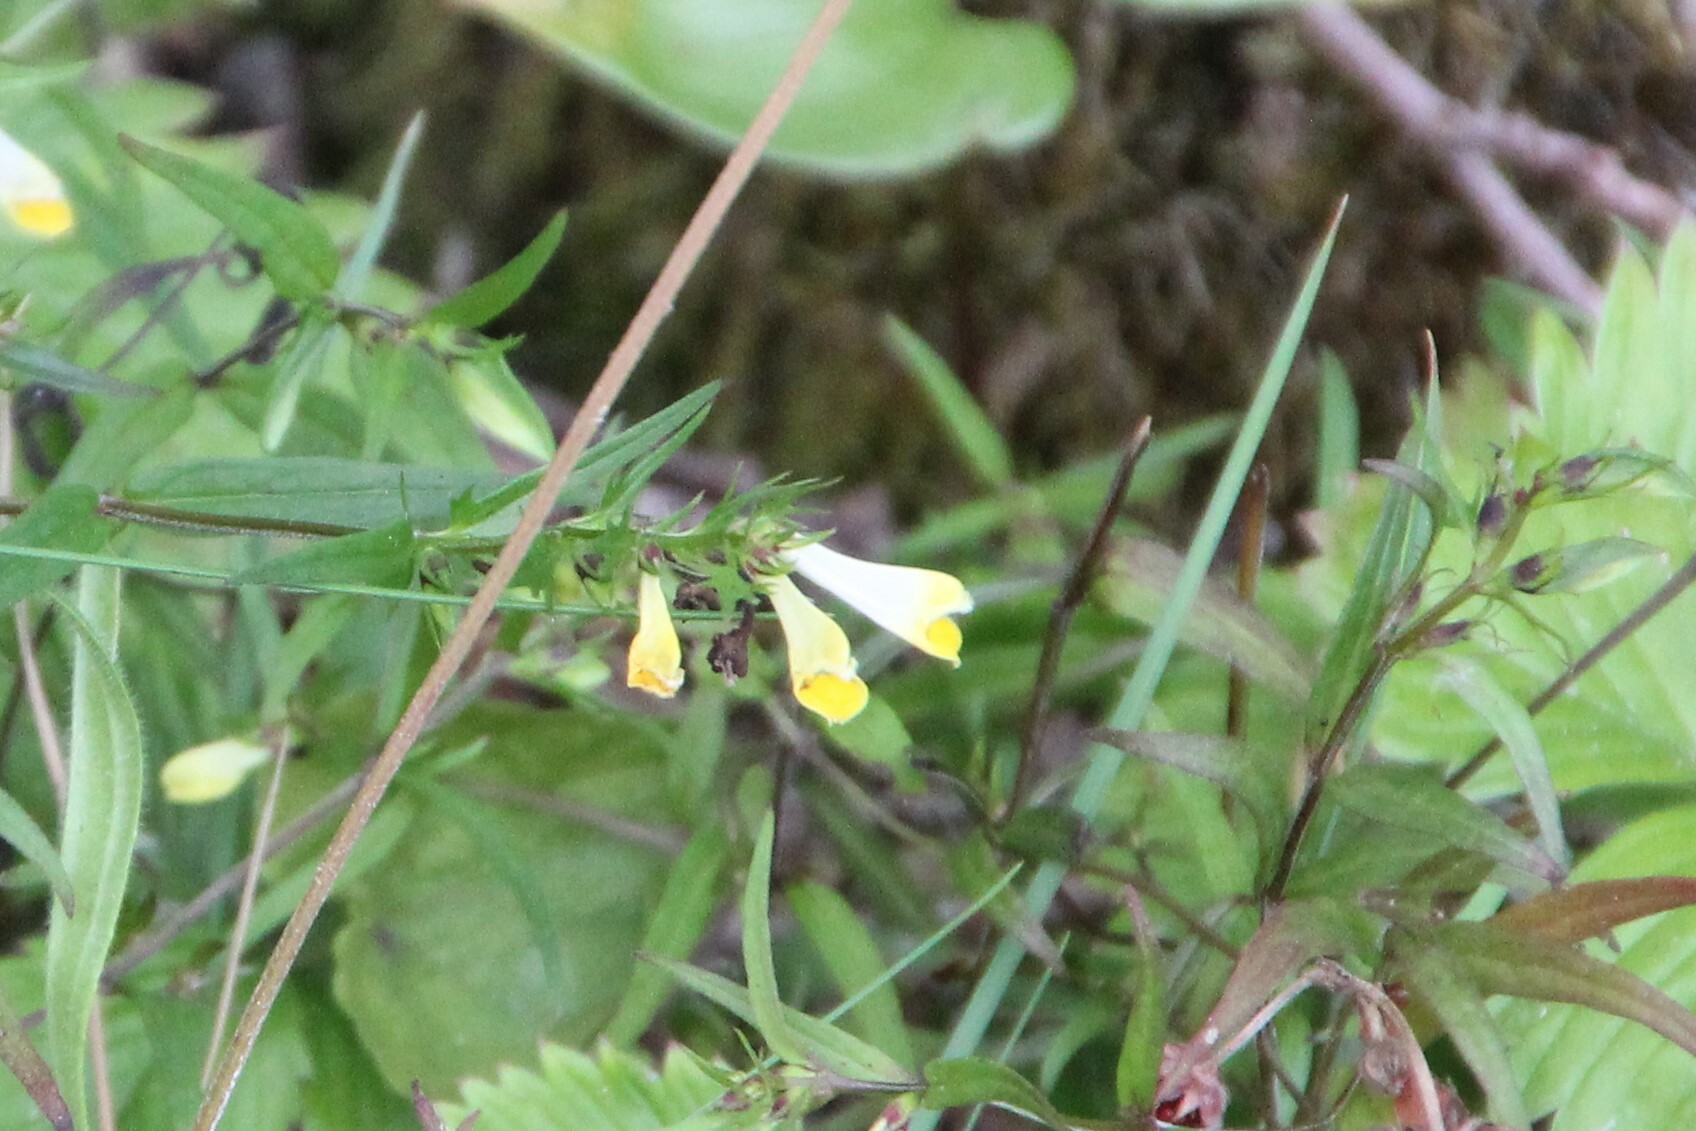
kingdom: Plantae
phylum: Tracheophyta
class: Magnoliopsida
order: Lamiales
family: Orobanchaceae
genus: Melampyrum
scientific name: Melampyrum pratense
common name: Common cow-wheat
